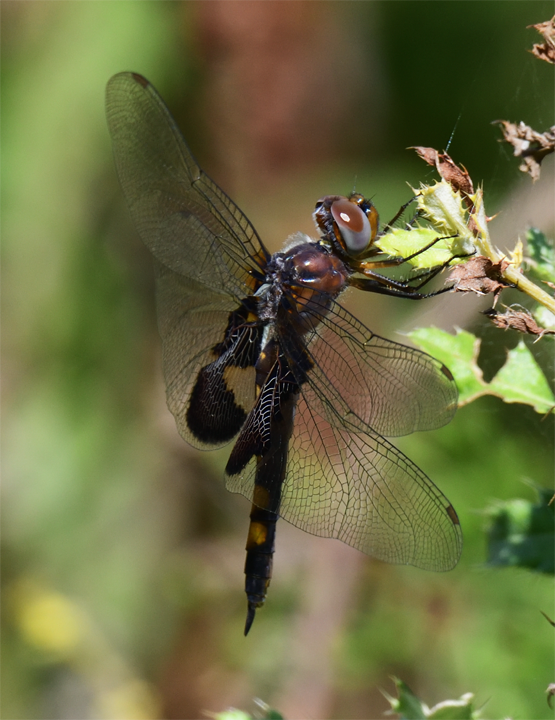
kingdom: Animalia
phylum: Arthropoda
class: Insecta
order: Odonata
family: Libellulidae
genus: Tramea
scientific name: Tramea lacerata
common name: Black saddlebags
